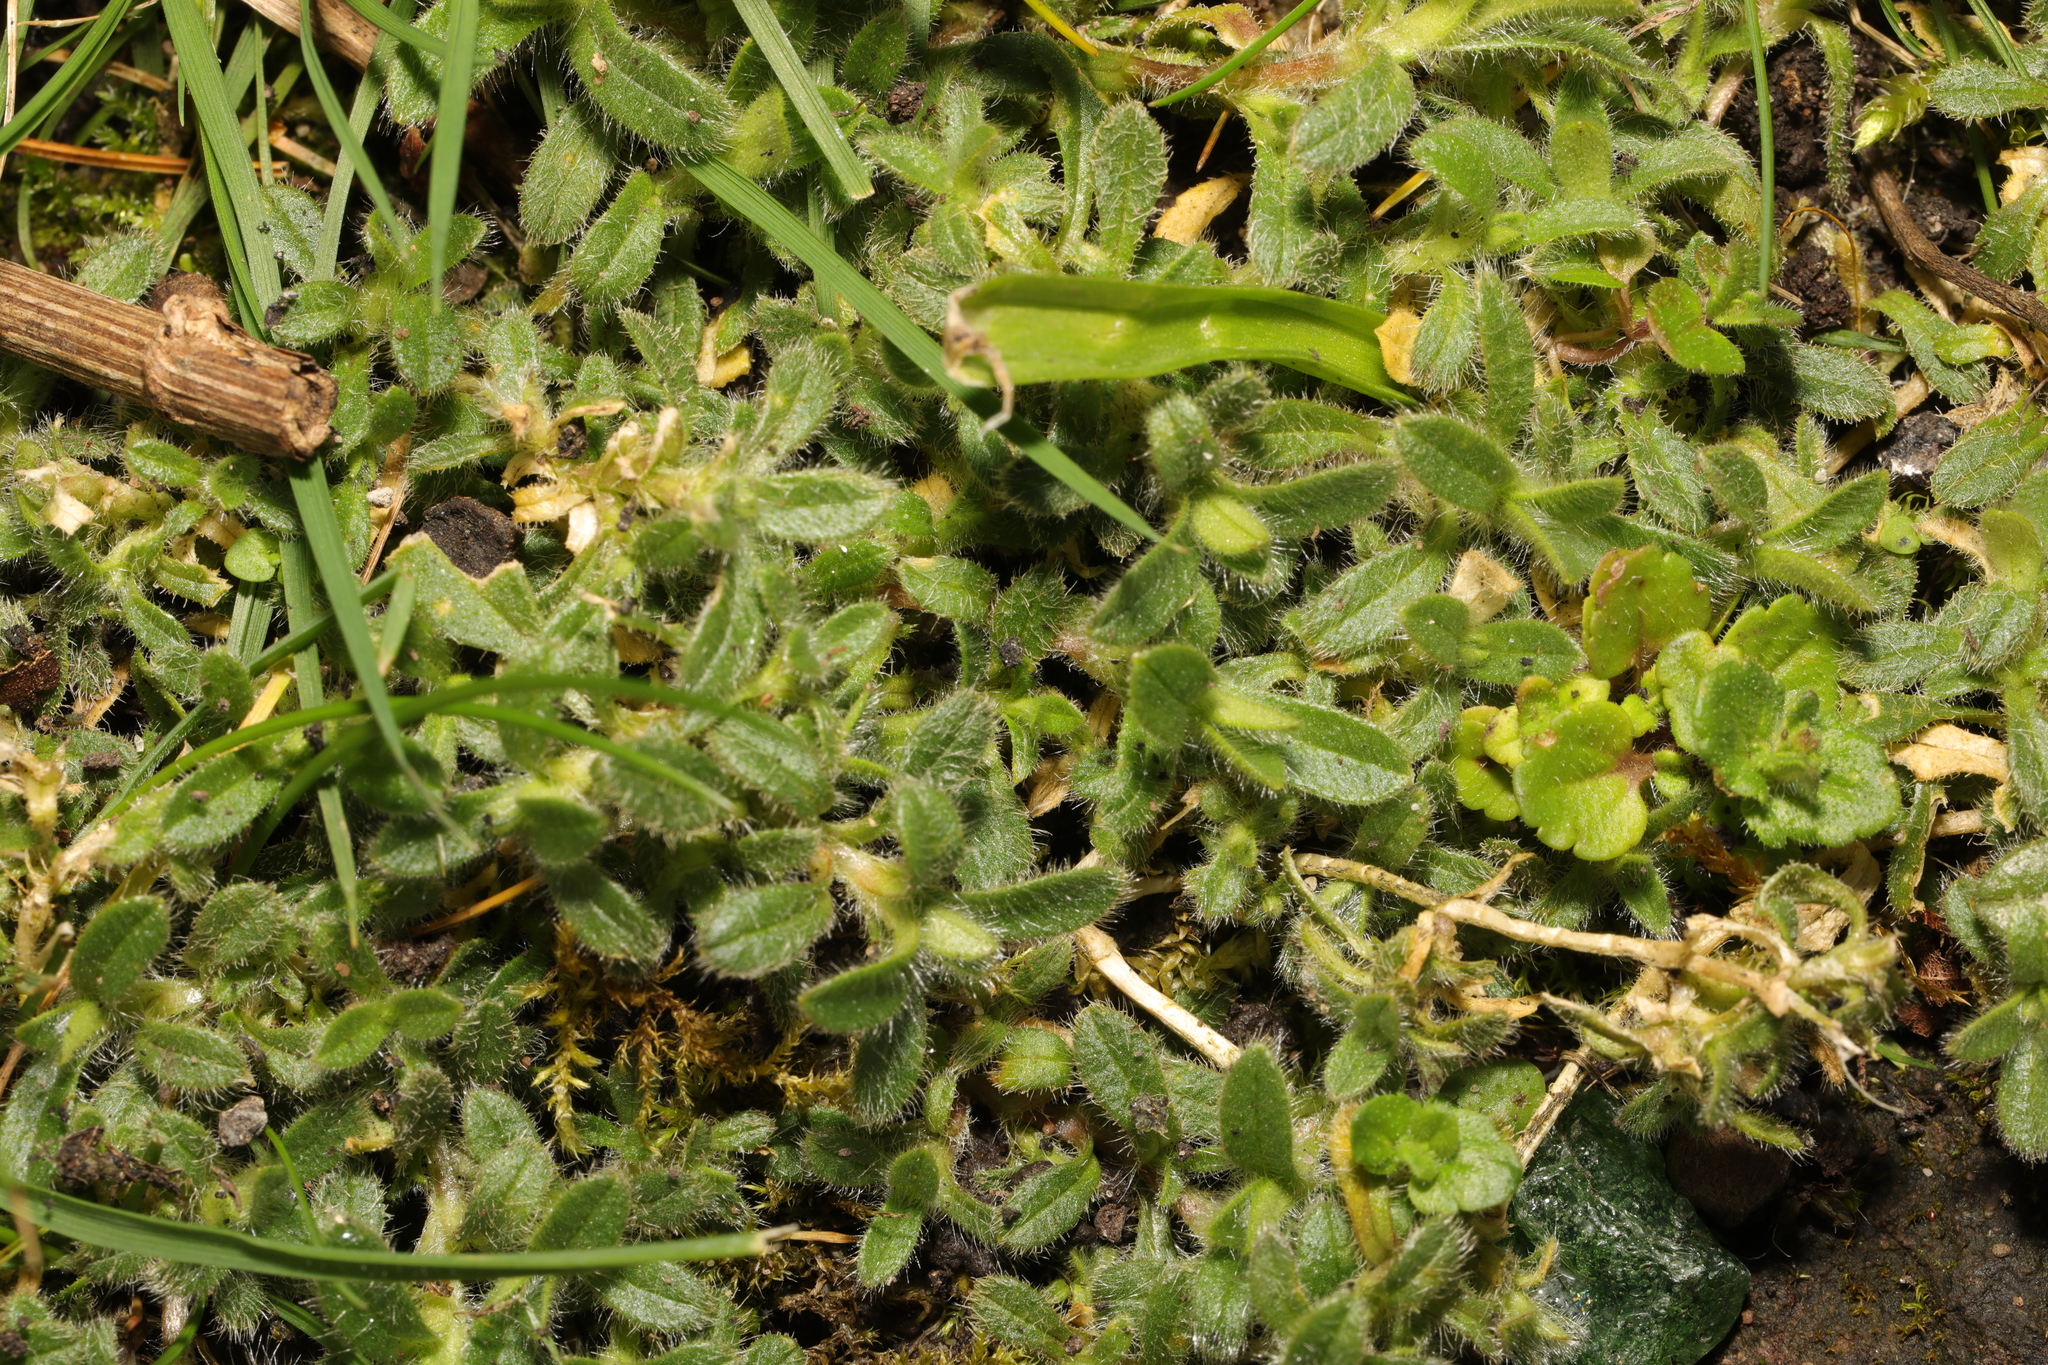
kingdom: Plantae
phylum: Tracheophyta
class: Magnoliopsida
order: Caryophyllales
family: Caryophyllaceae
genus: Cerastium
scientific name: Cerastium fontanum
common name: Common mouse-ear
